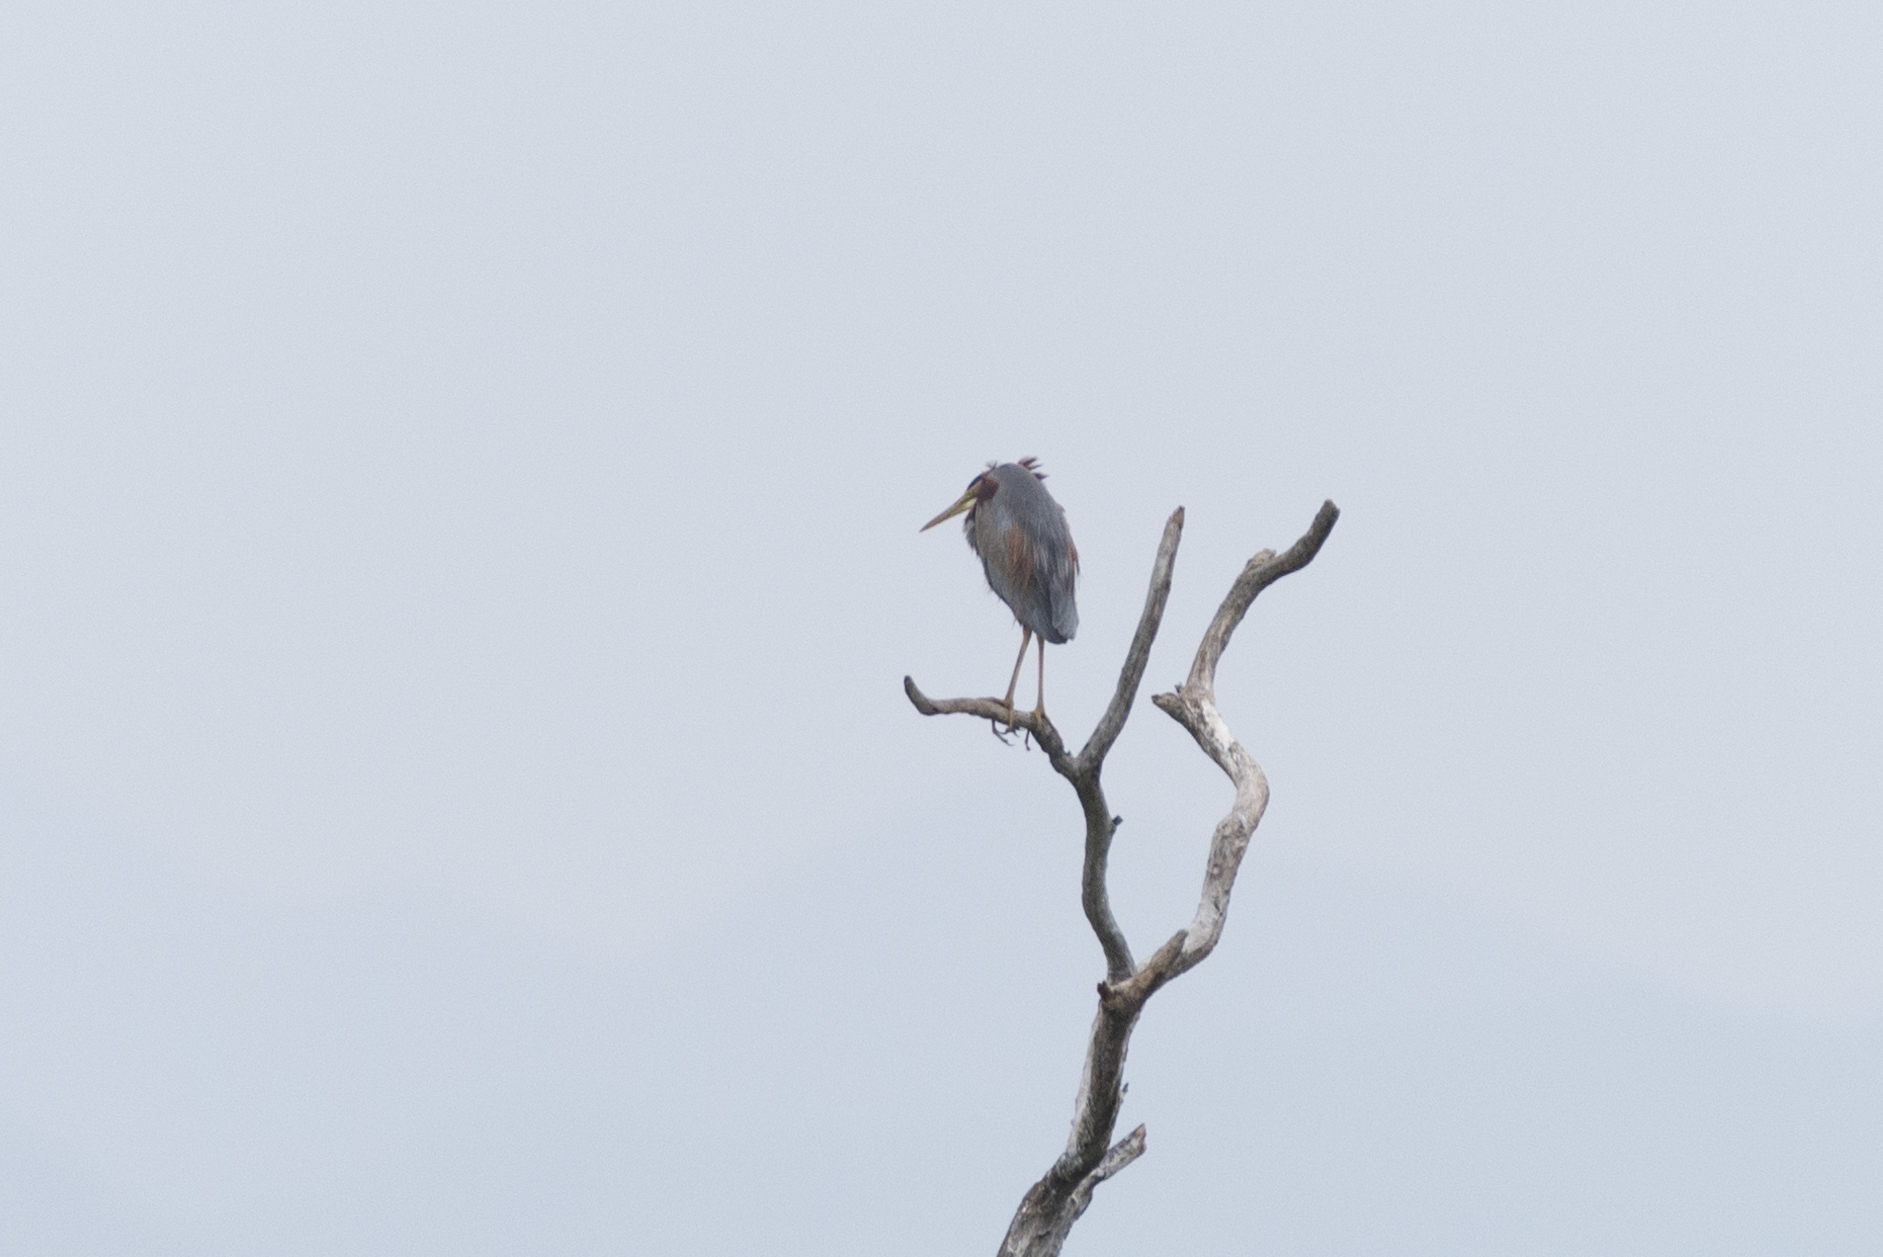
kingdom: Animalia
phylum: Chordata
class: Aves
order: Pelecaniformes
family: Ardeidae
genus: Ardea
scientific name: Ardea purpurea
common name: Purple heron
